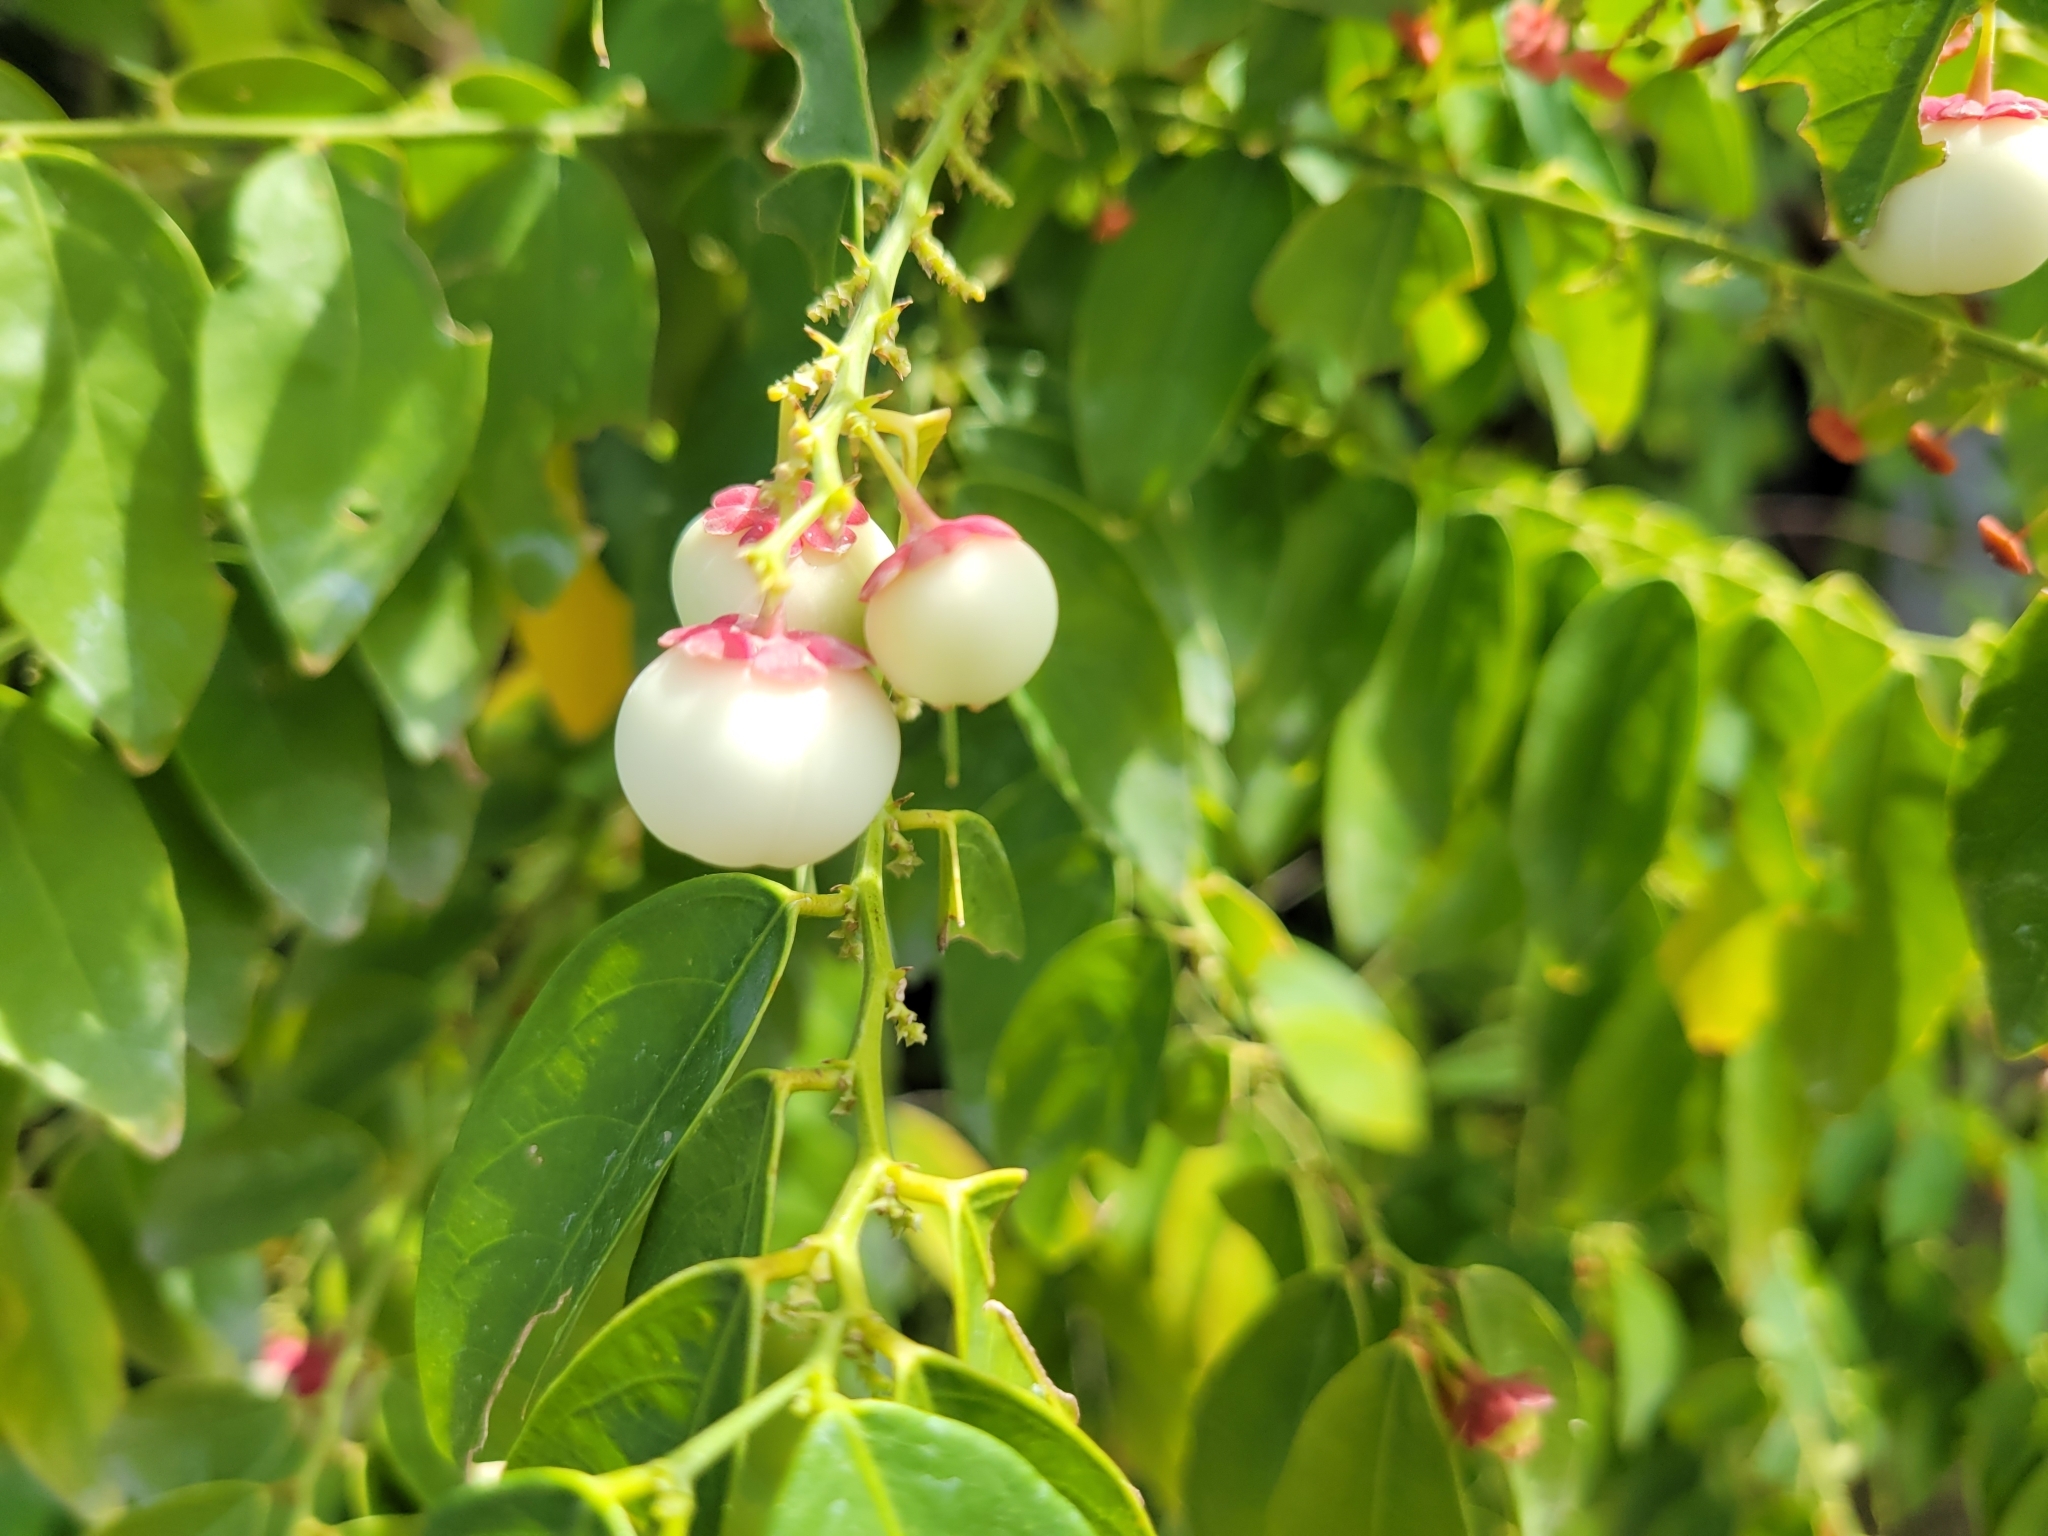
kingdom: Plantae
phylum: Tracheophyta
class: Magnoliopsida
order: Malpighiales
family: Phyllanthaceae
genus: Breynia
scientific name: Breynia androgyna
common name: Star gooseberry
